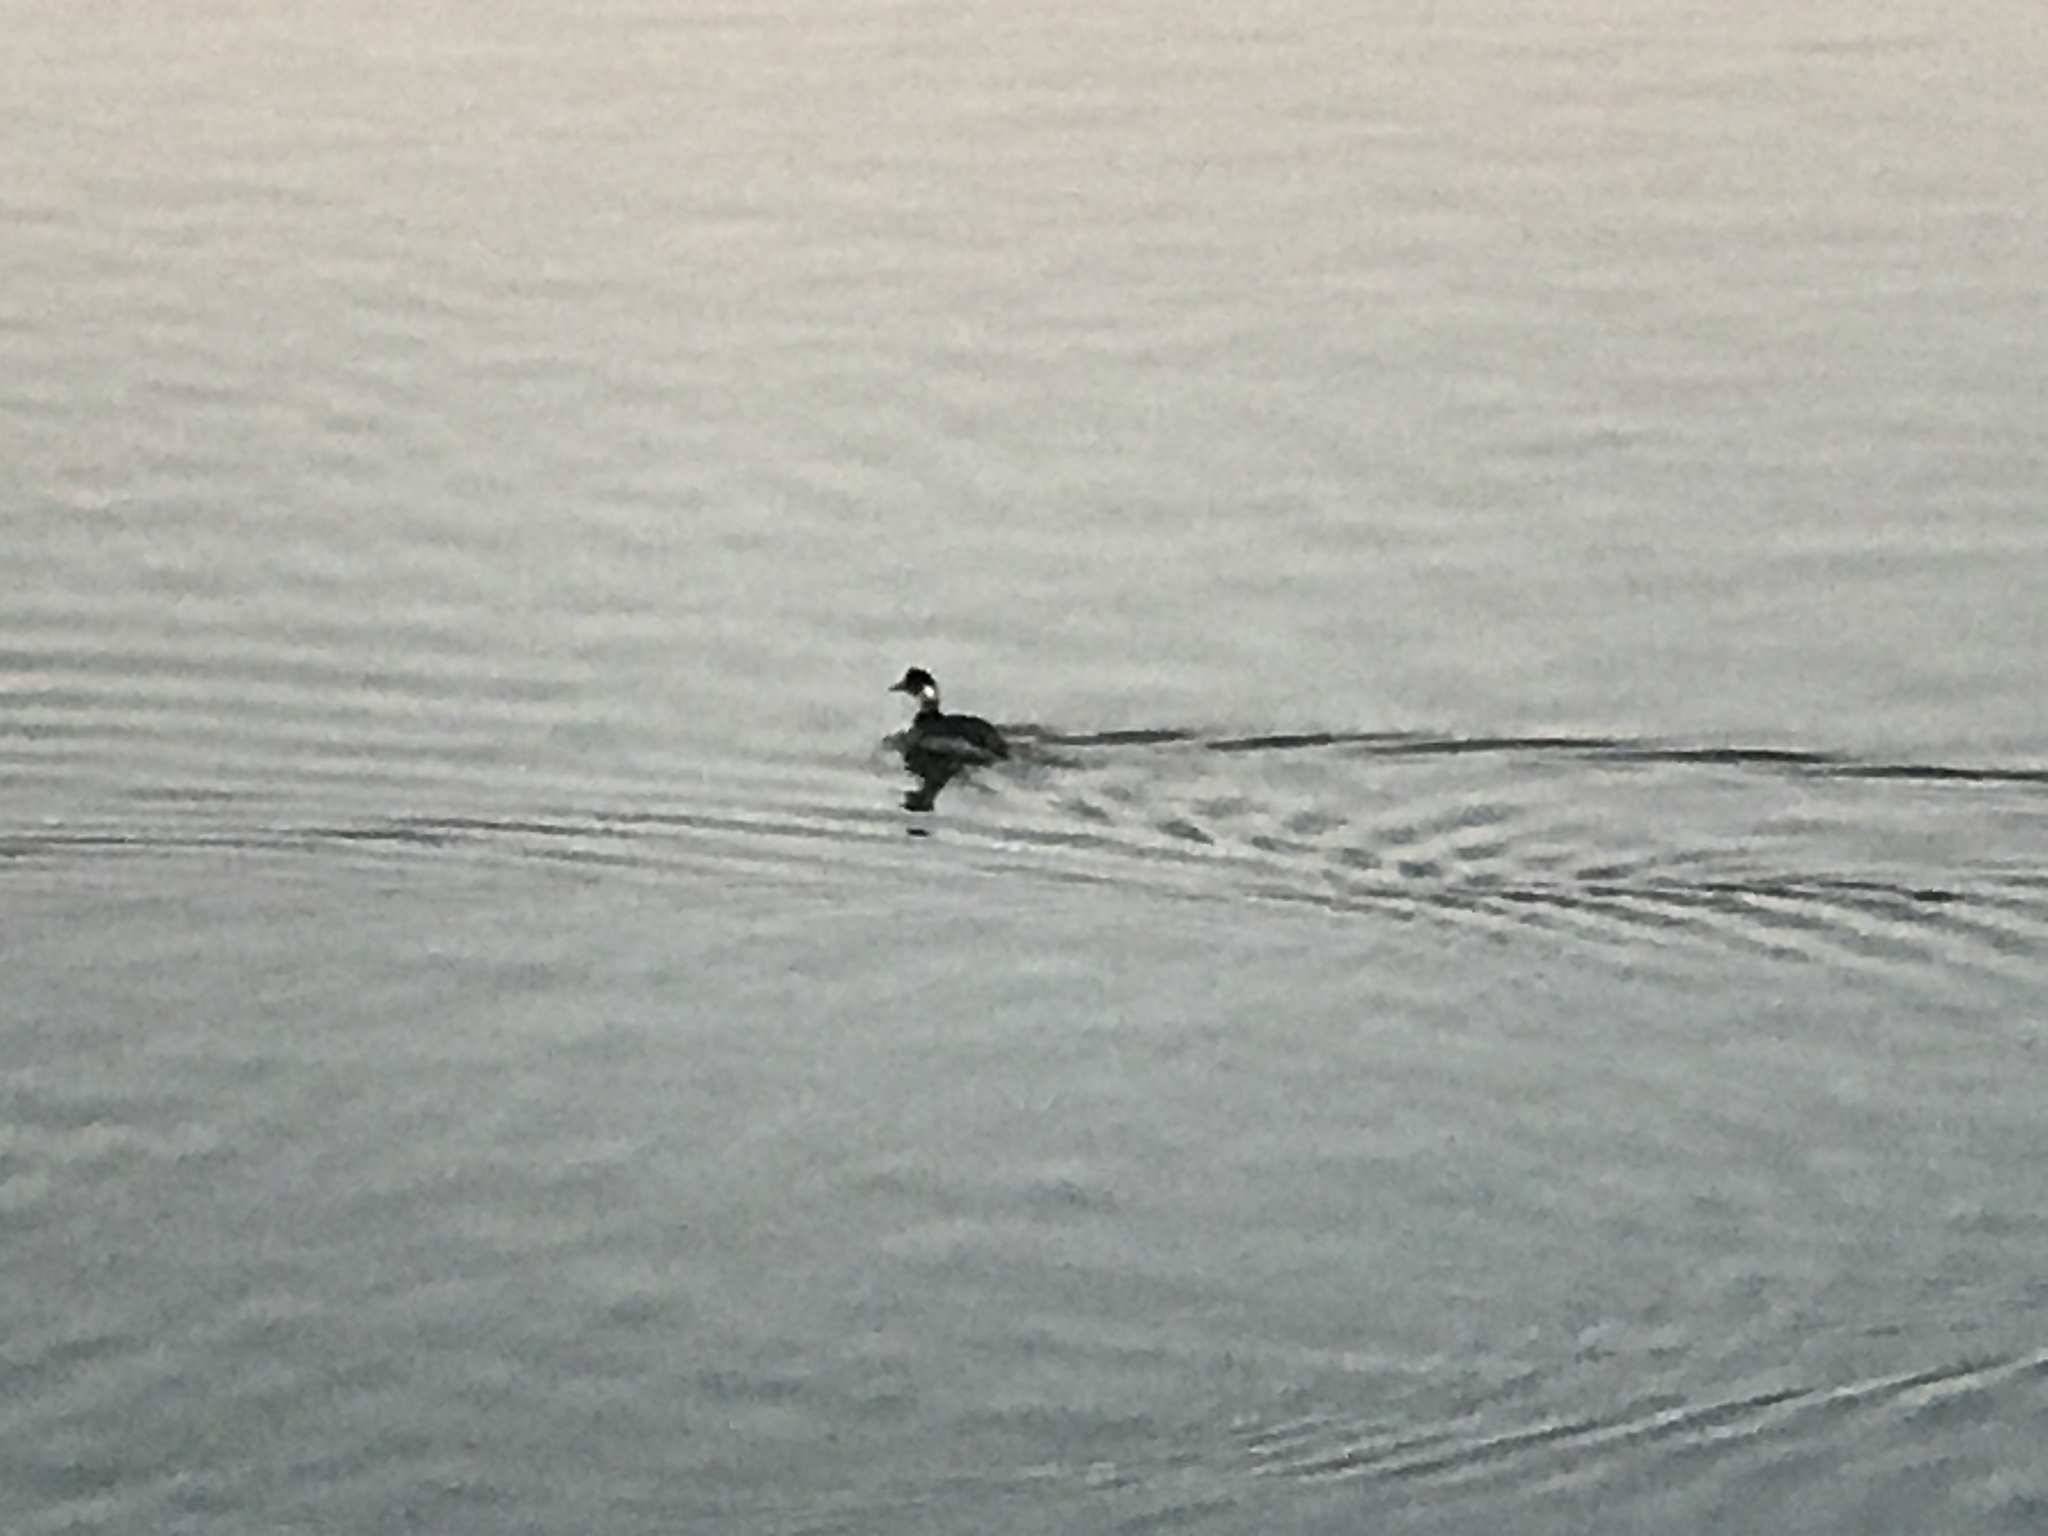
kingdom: Animalia
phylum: Chordata
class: Aves
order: Podicipediformes
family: Podicipedidae
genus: Podiceps
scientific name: Podiceps nigricollis
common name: Black-necked grebe
